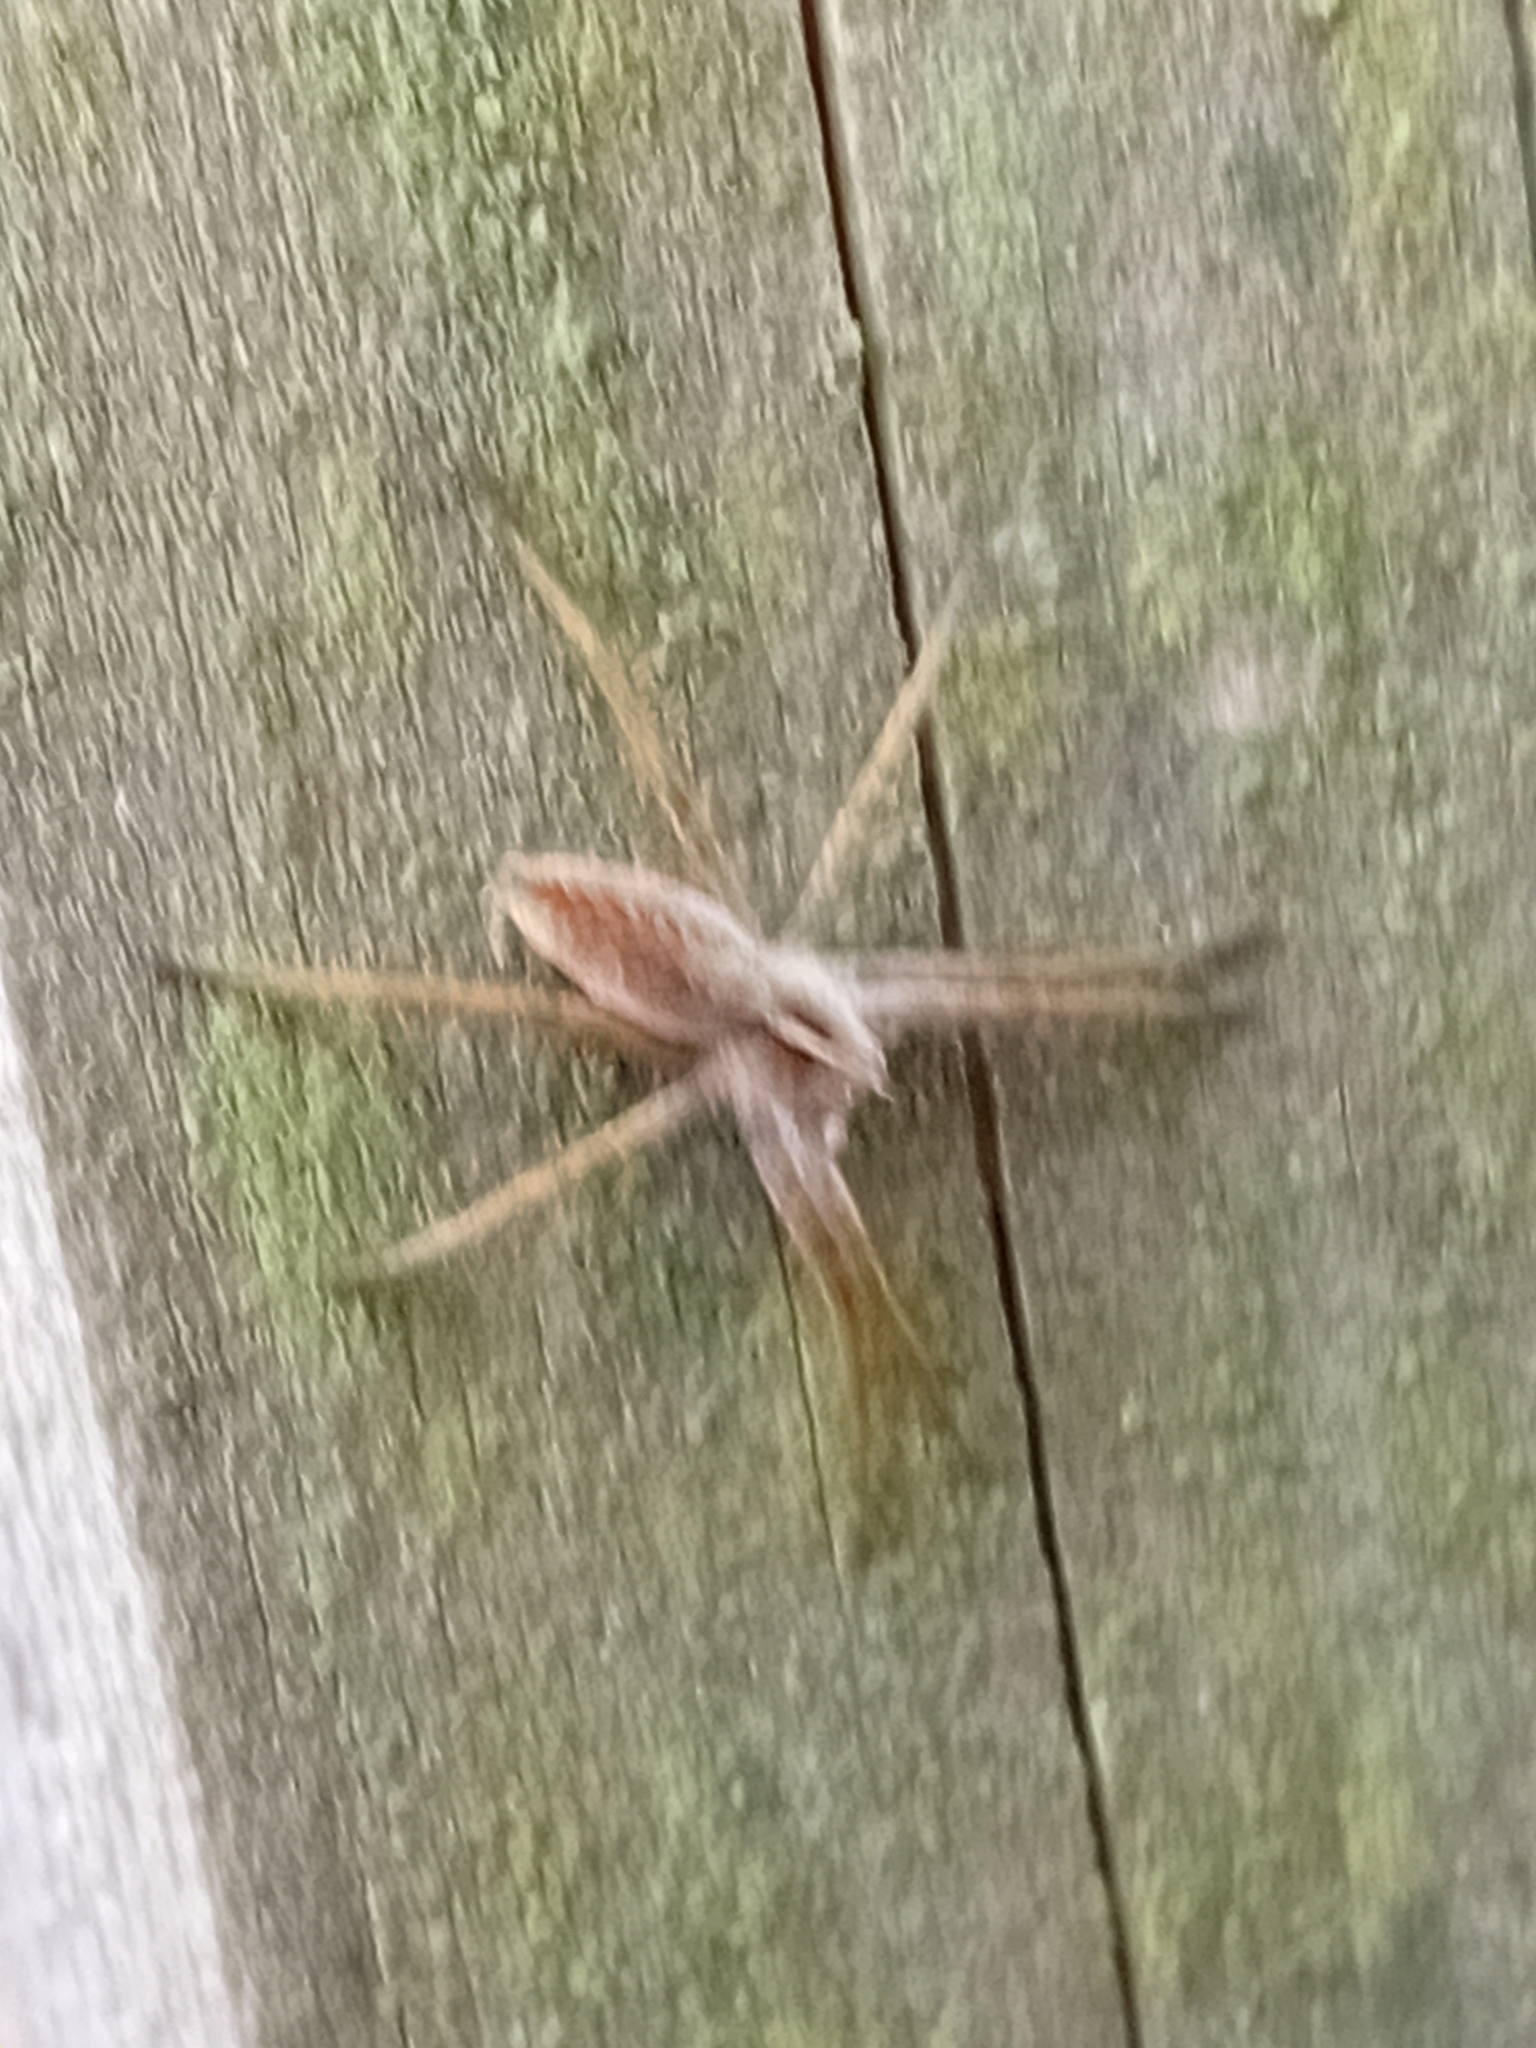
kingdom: Animalia
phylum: Arthropoda
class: Arachnida
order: Araneae
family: Pisauridae
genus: Pisaura
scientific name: Pisaura mirabilis
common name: Tent spider
